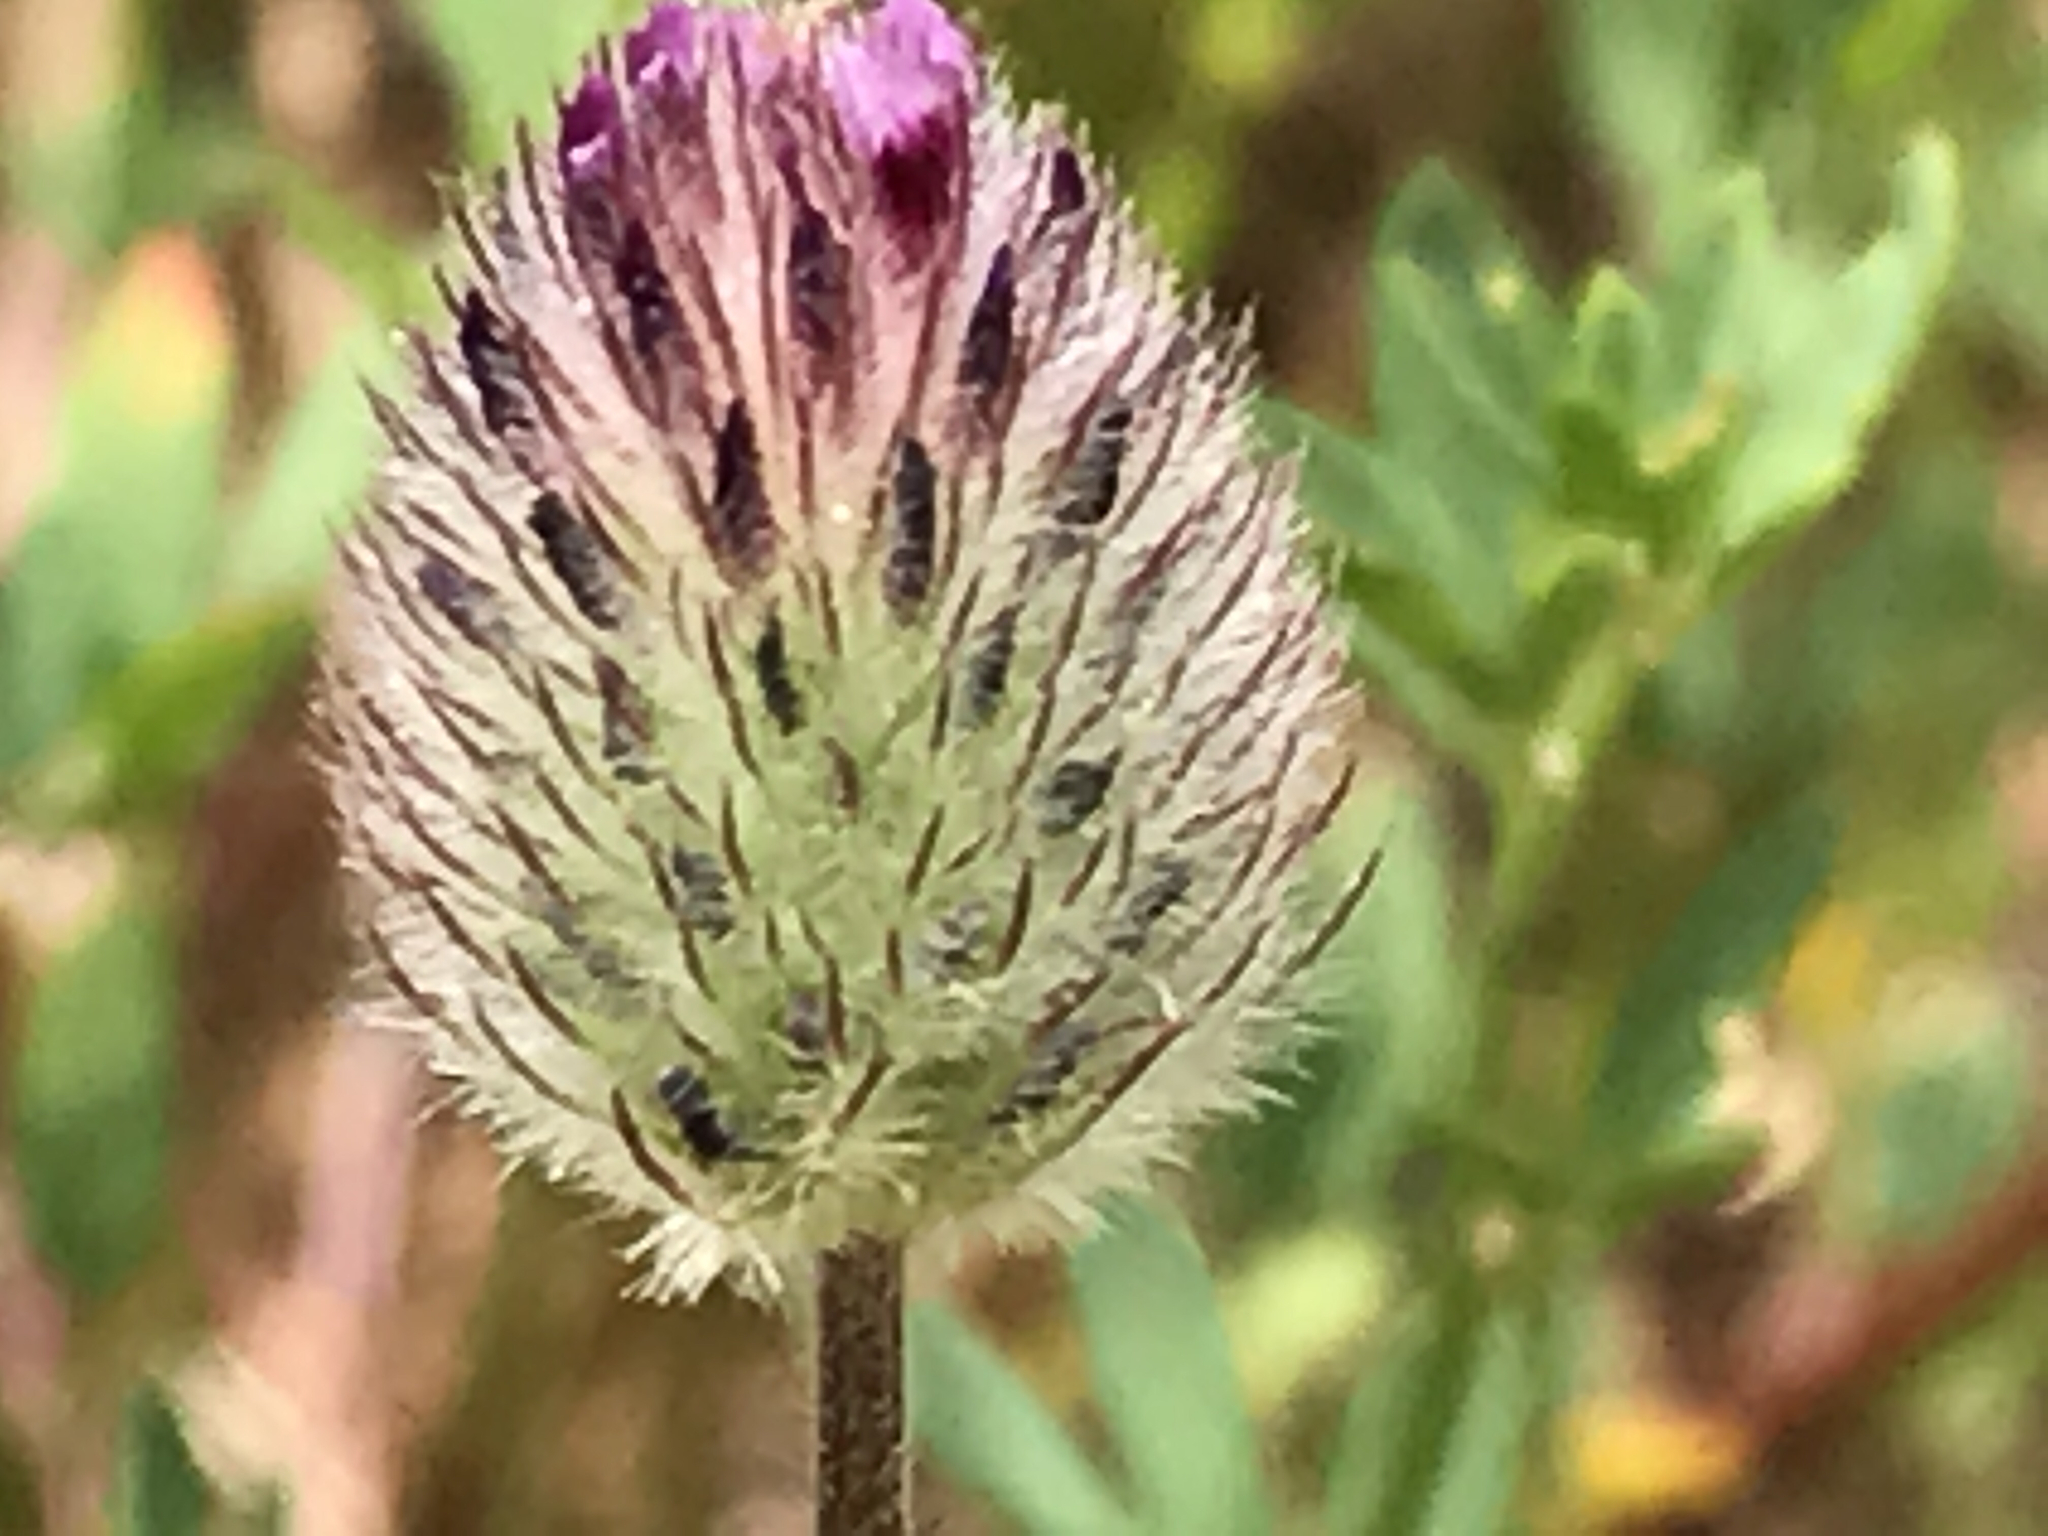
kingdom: Plantae
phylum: Tracheophyta
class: Magnoliopsida
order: Fabales
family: Fabaceae
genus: Trifolium
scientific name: Trifolium albopurpureum
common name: Rancheria clover
